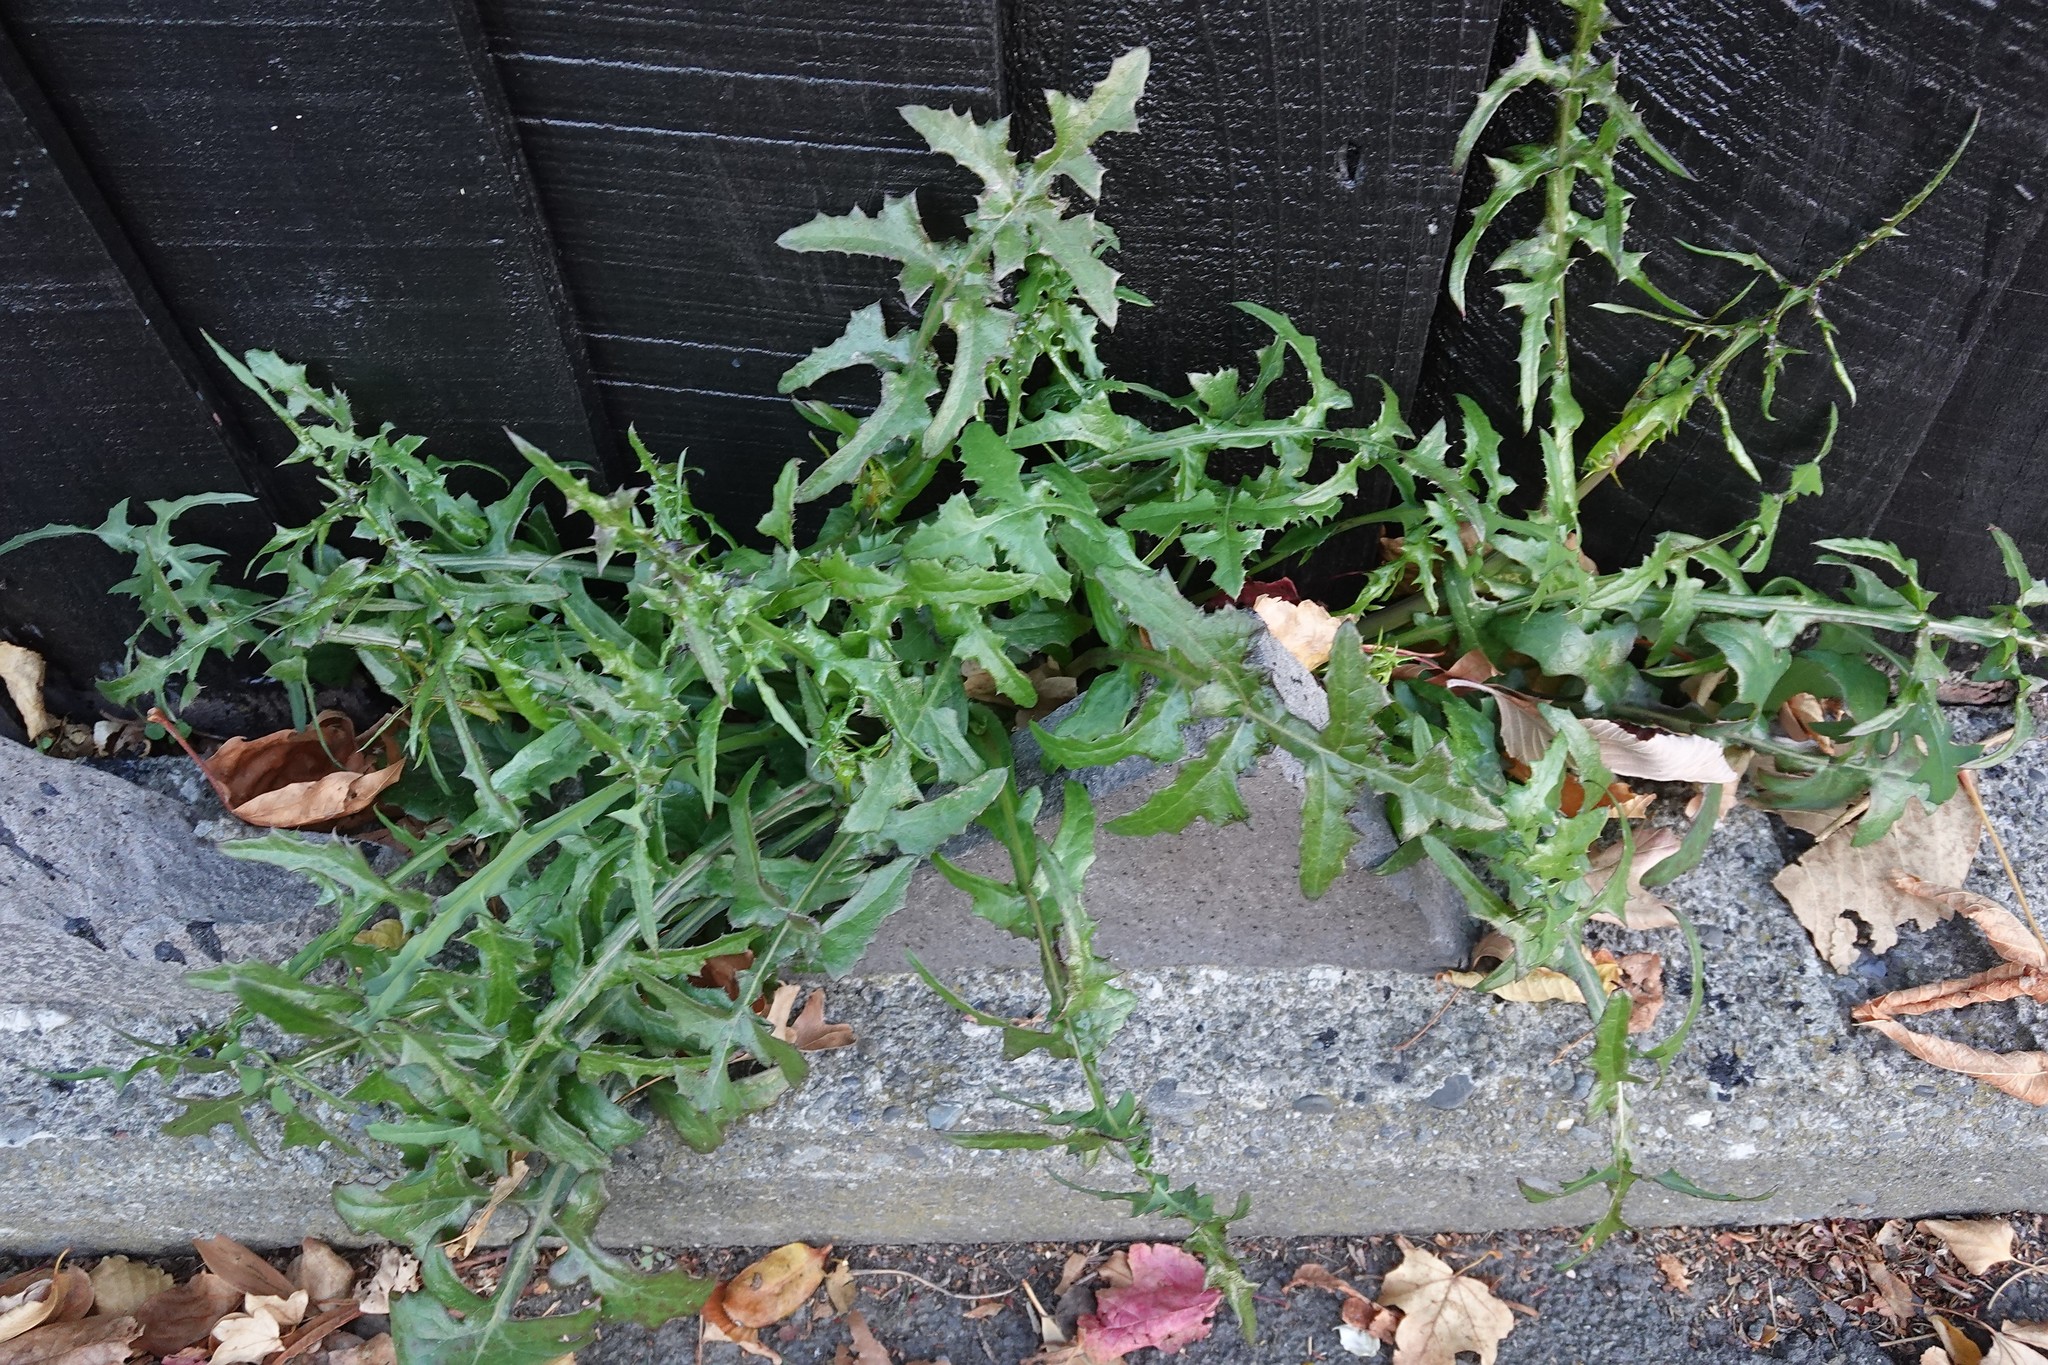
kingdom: Plantae
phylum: Tracheophyta
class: Magnoliopsida
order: Asterales
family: Asteraceae
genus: Sonchus
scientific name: Sonchus oleraceus
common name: Common sowthistle
